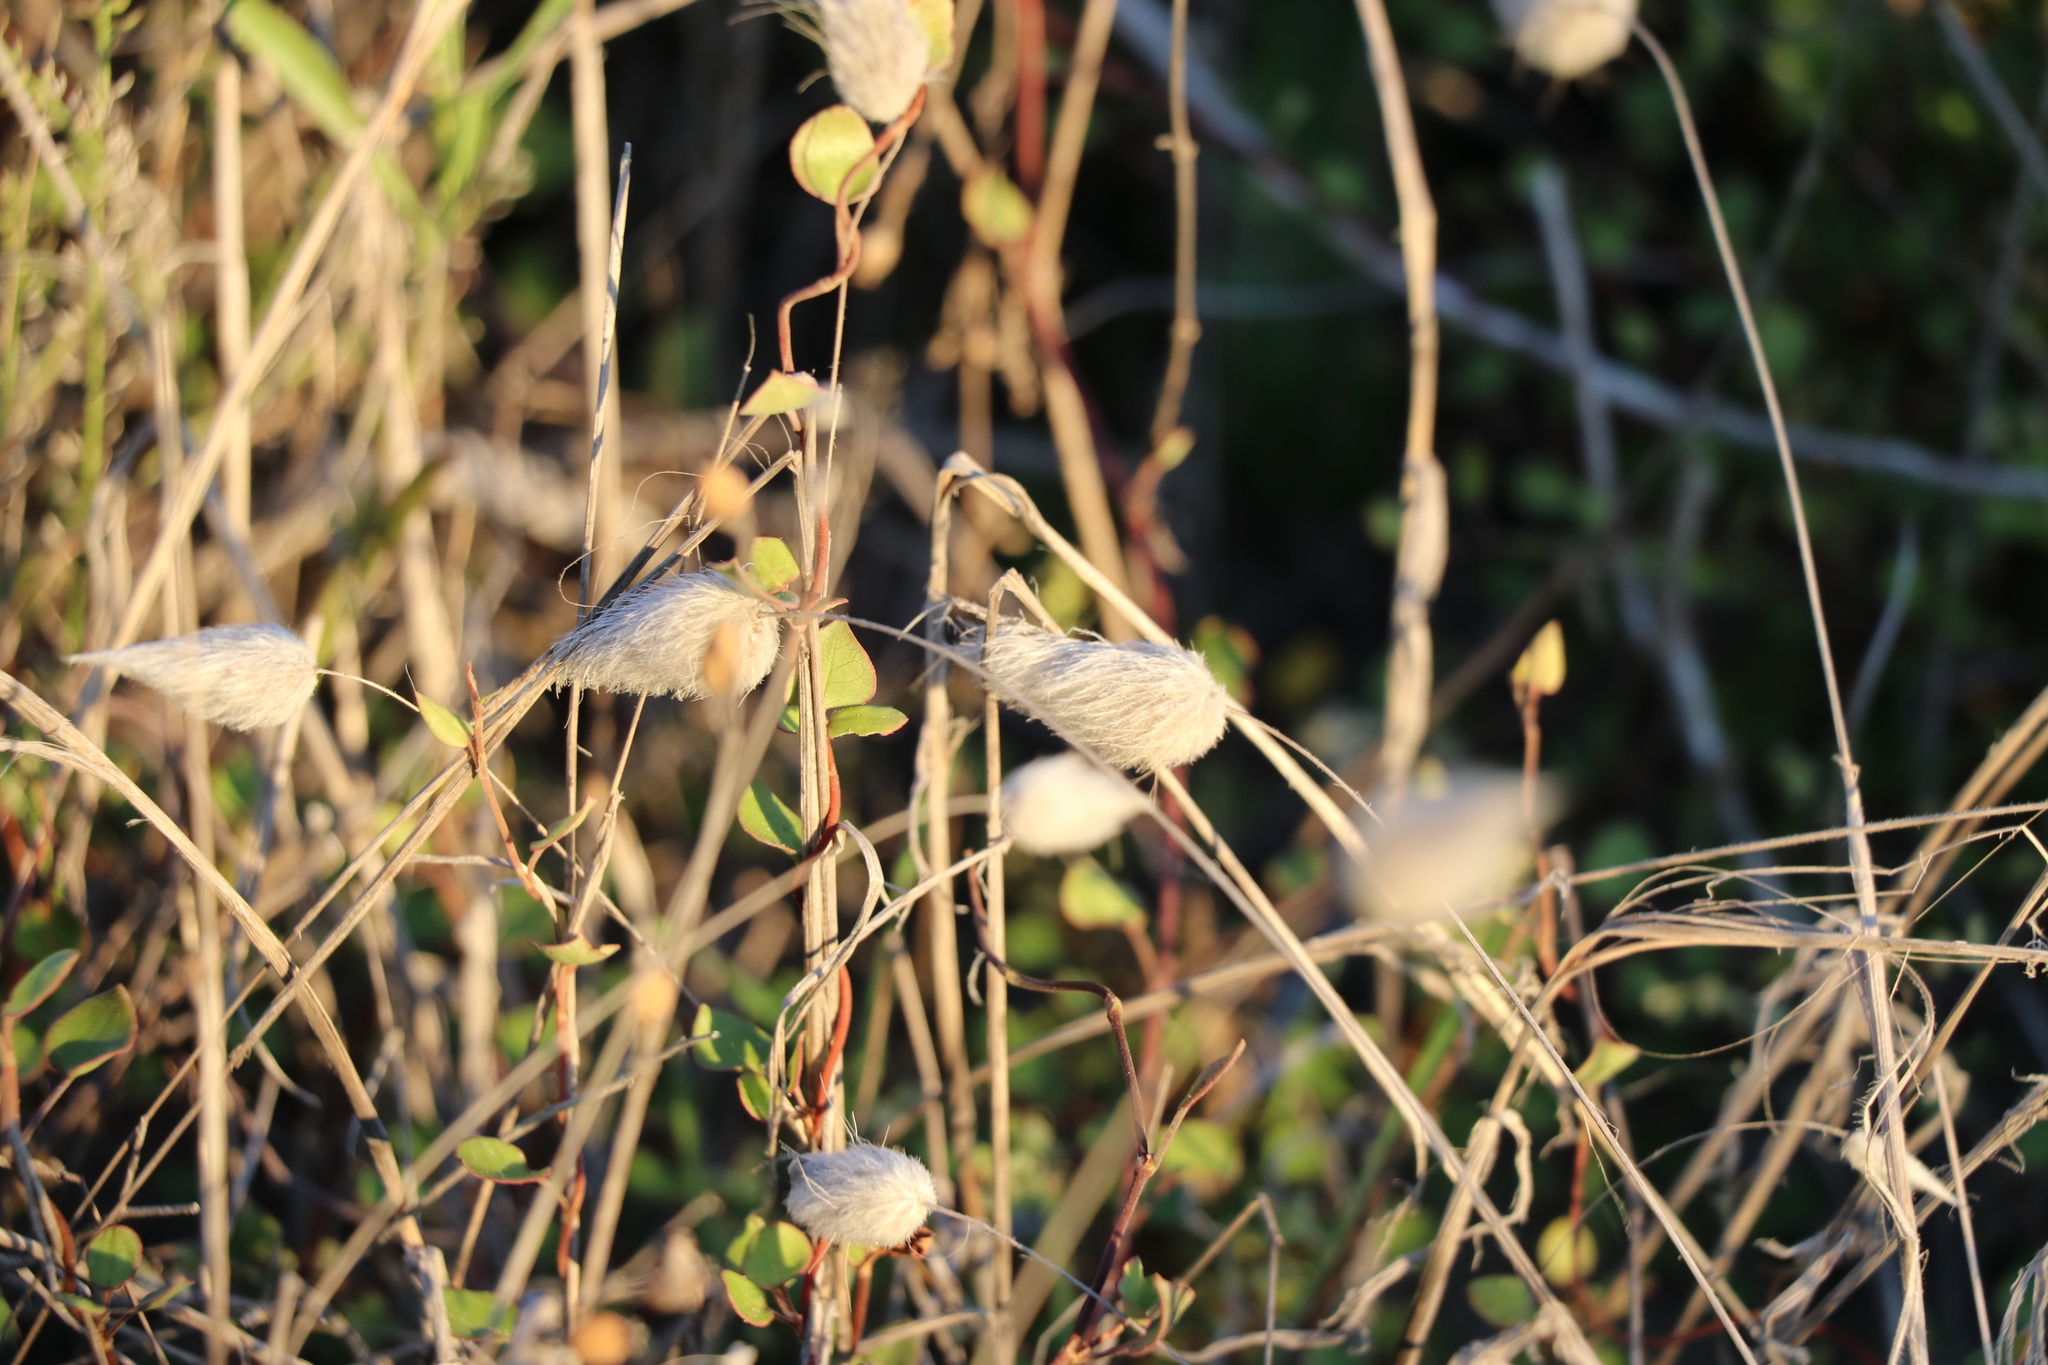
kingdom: Plantae
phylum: Tracheophyta
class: Liliopsida
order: Poales
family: Poaceae
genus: Lagurus
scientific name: Lagurus ovatus
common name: Hare's-tail
